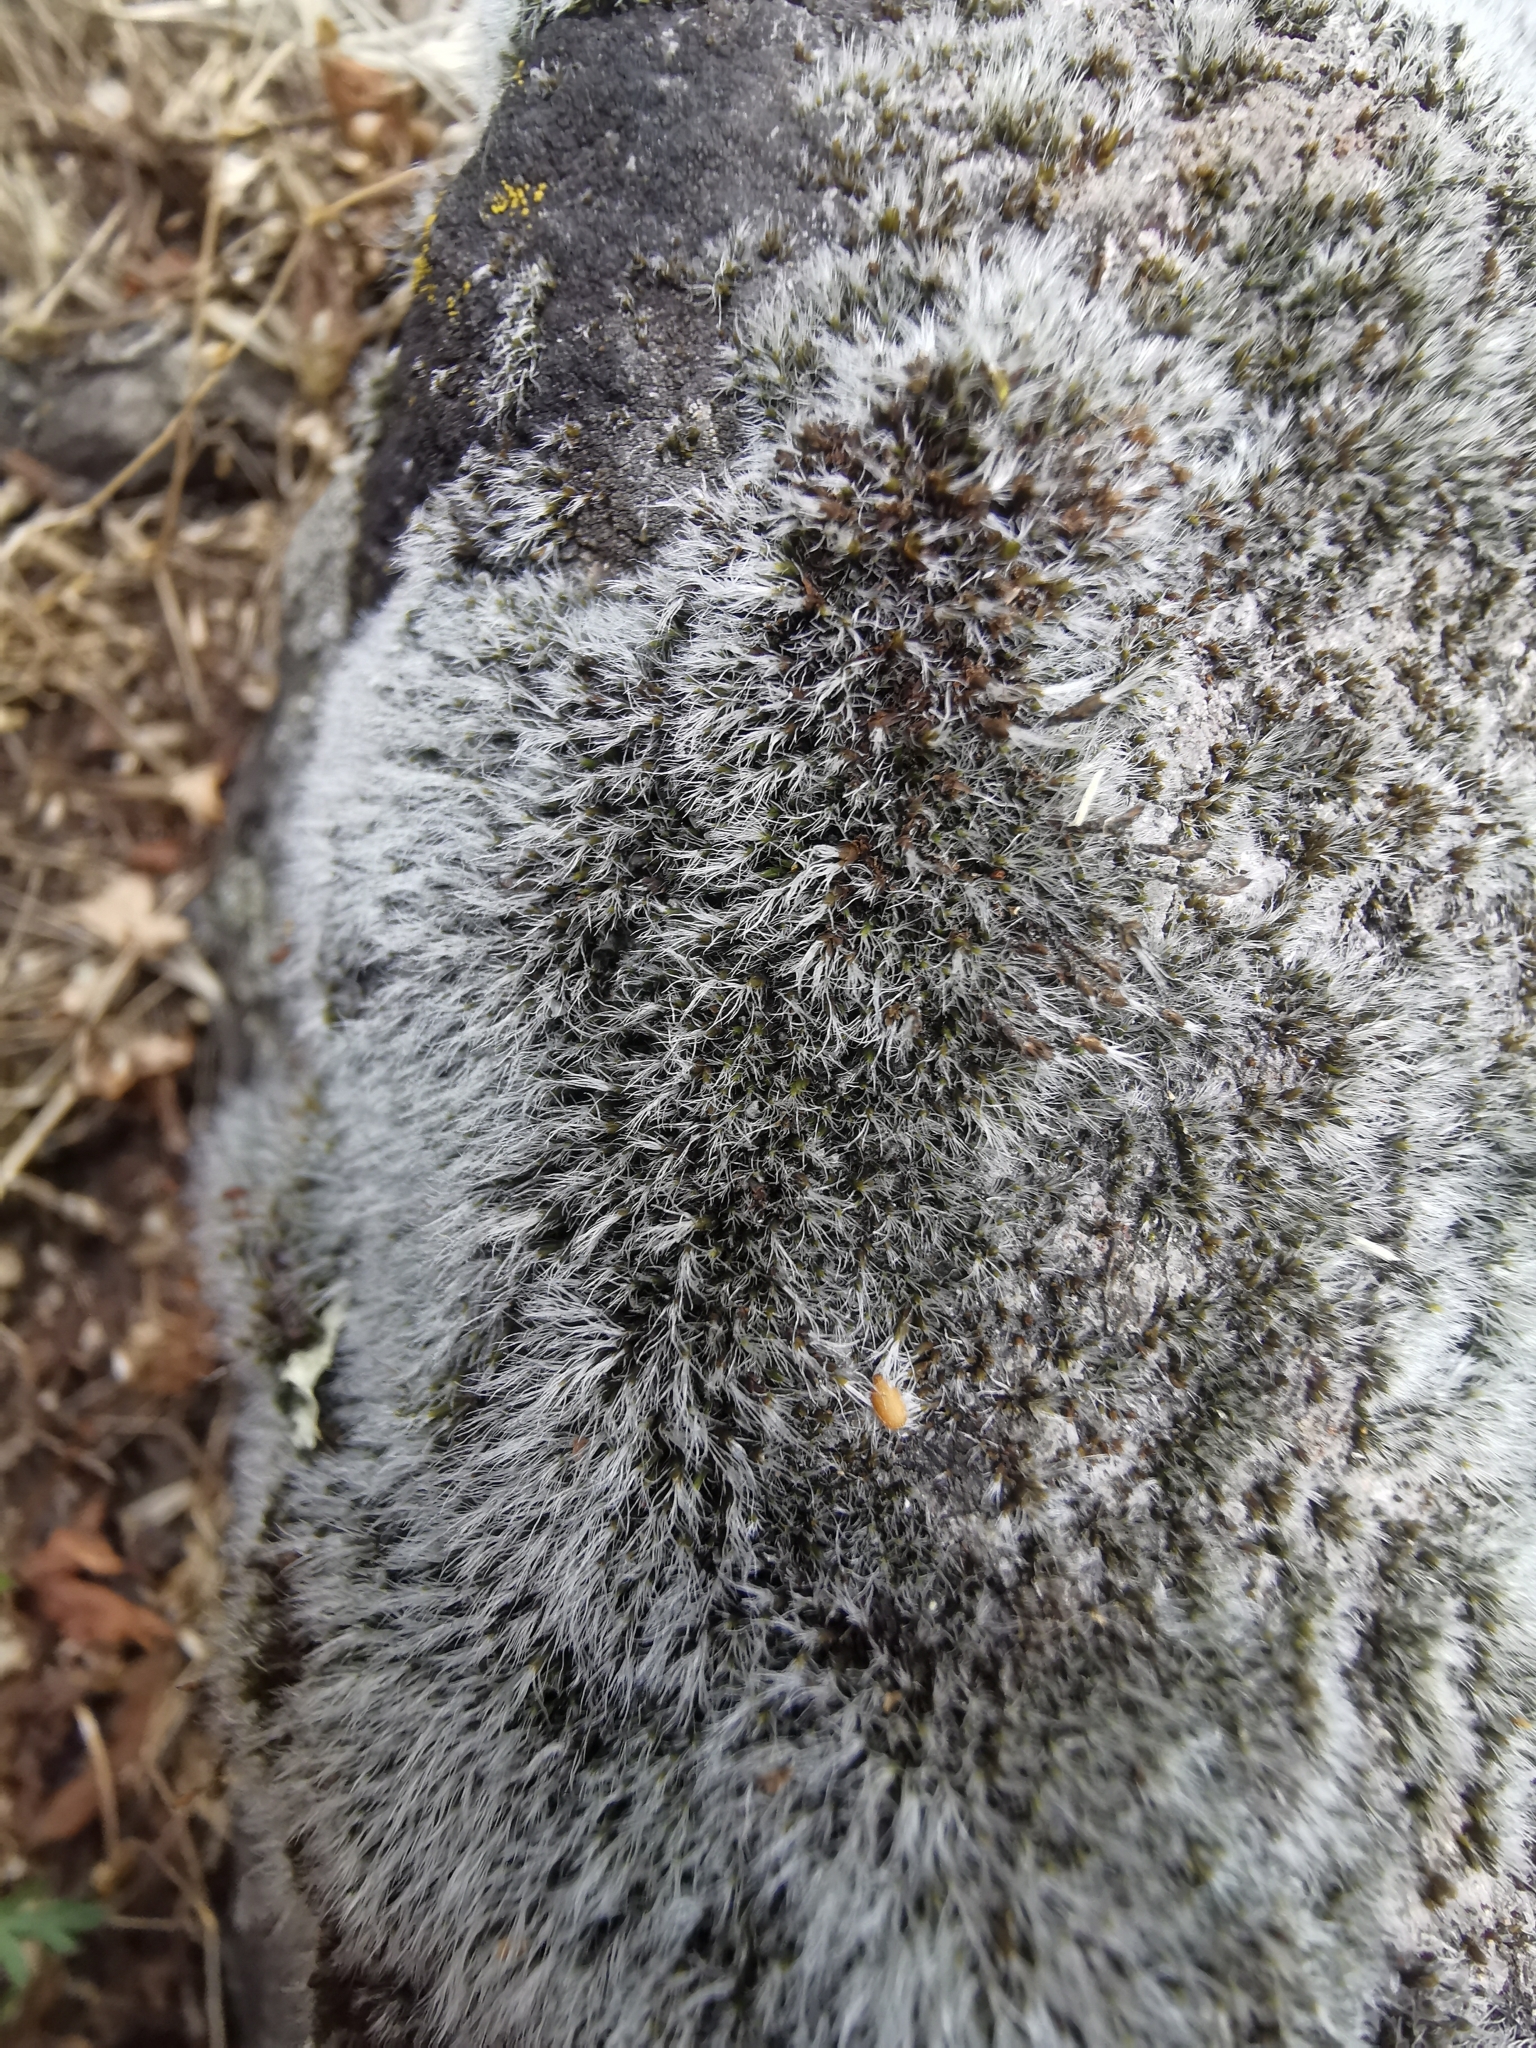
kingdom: Plantae
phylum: Bryophyta
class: Bryopsida
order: Grimmiales
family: Grimmiaceae
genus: Grimmia
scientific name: Grimmia laevigata
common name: Hoary grimmia
